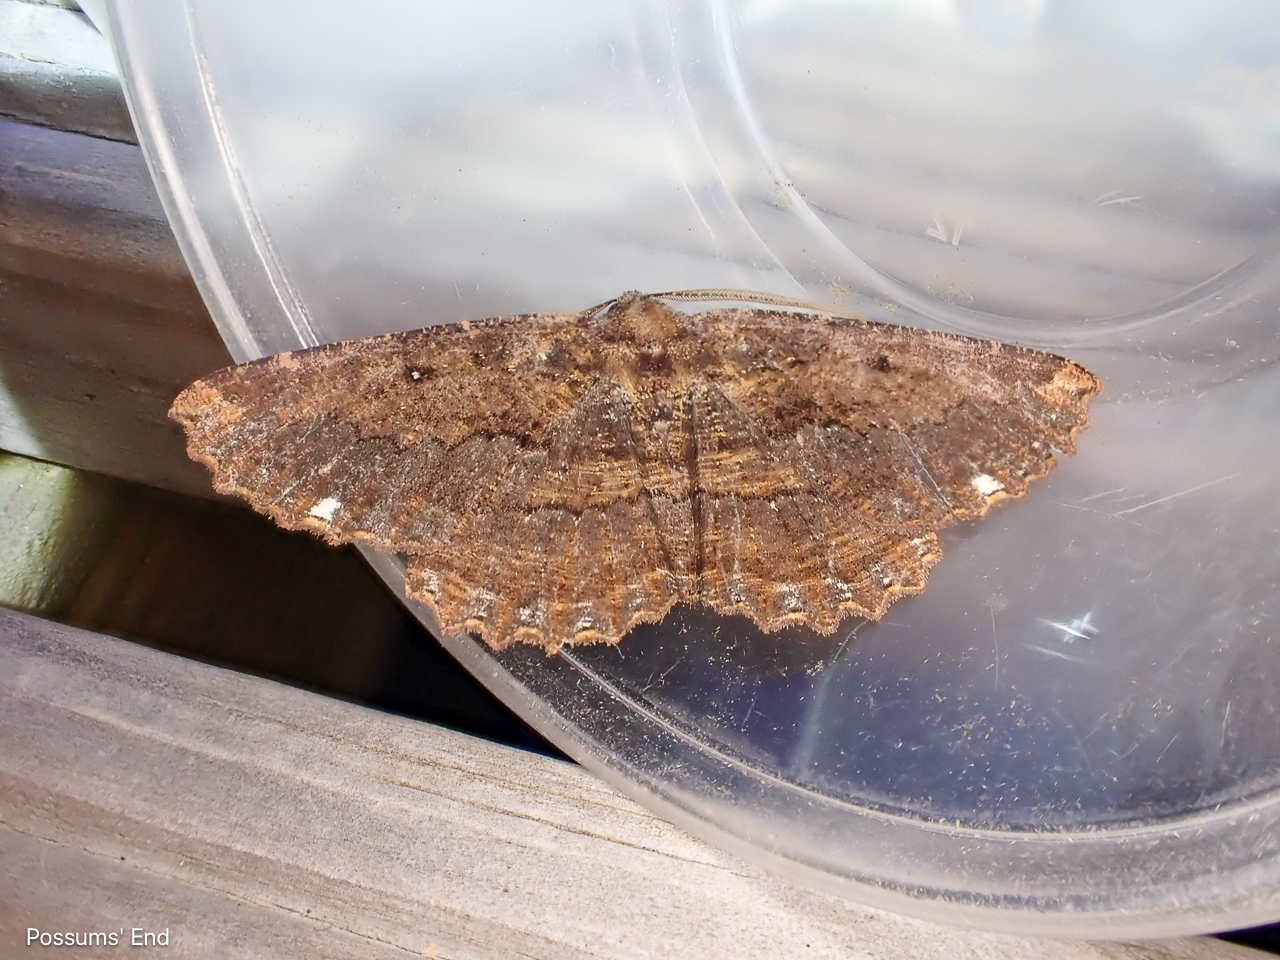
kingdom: Animalia
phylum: Arthropoda
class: Insecta
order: Lepidoptera
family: Geometridae
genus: Gellonia
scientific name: Gellonia dejectaria
